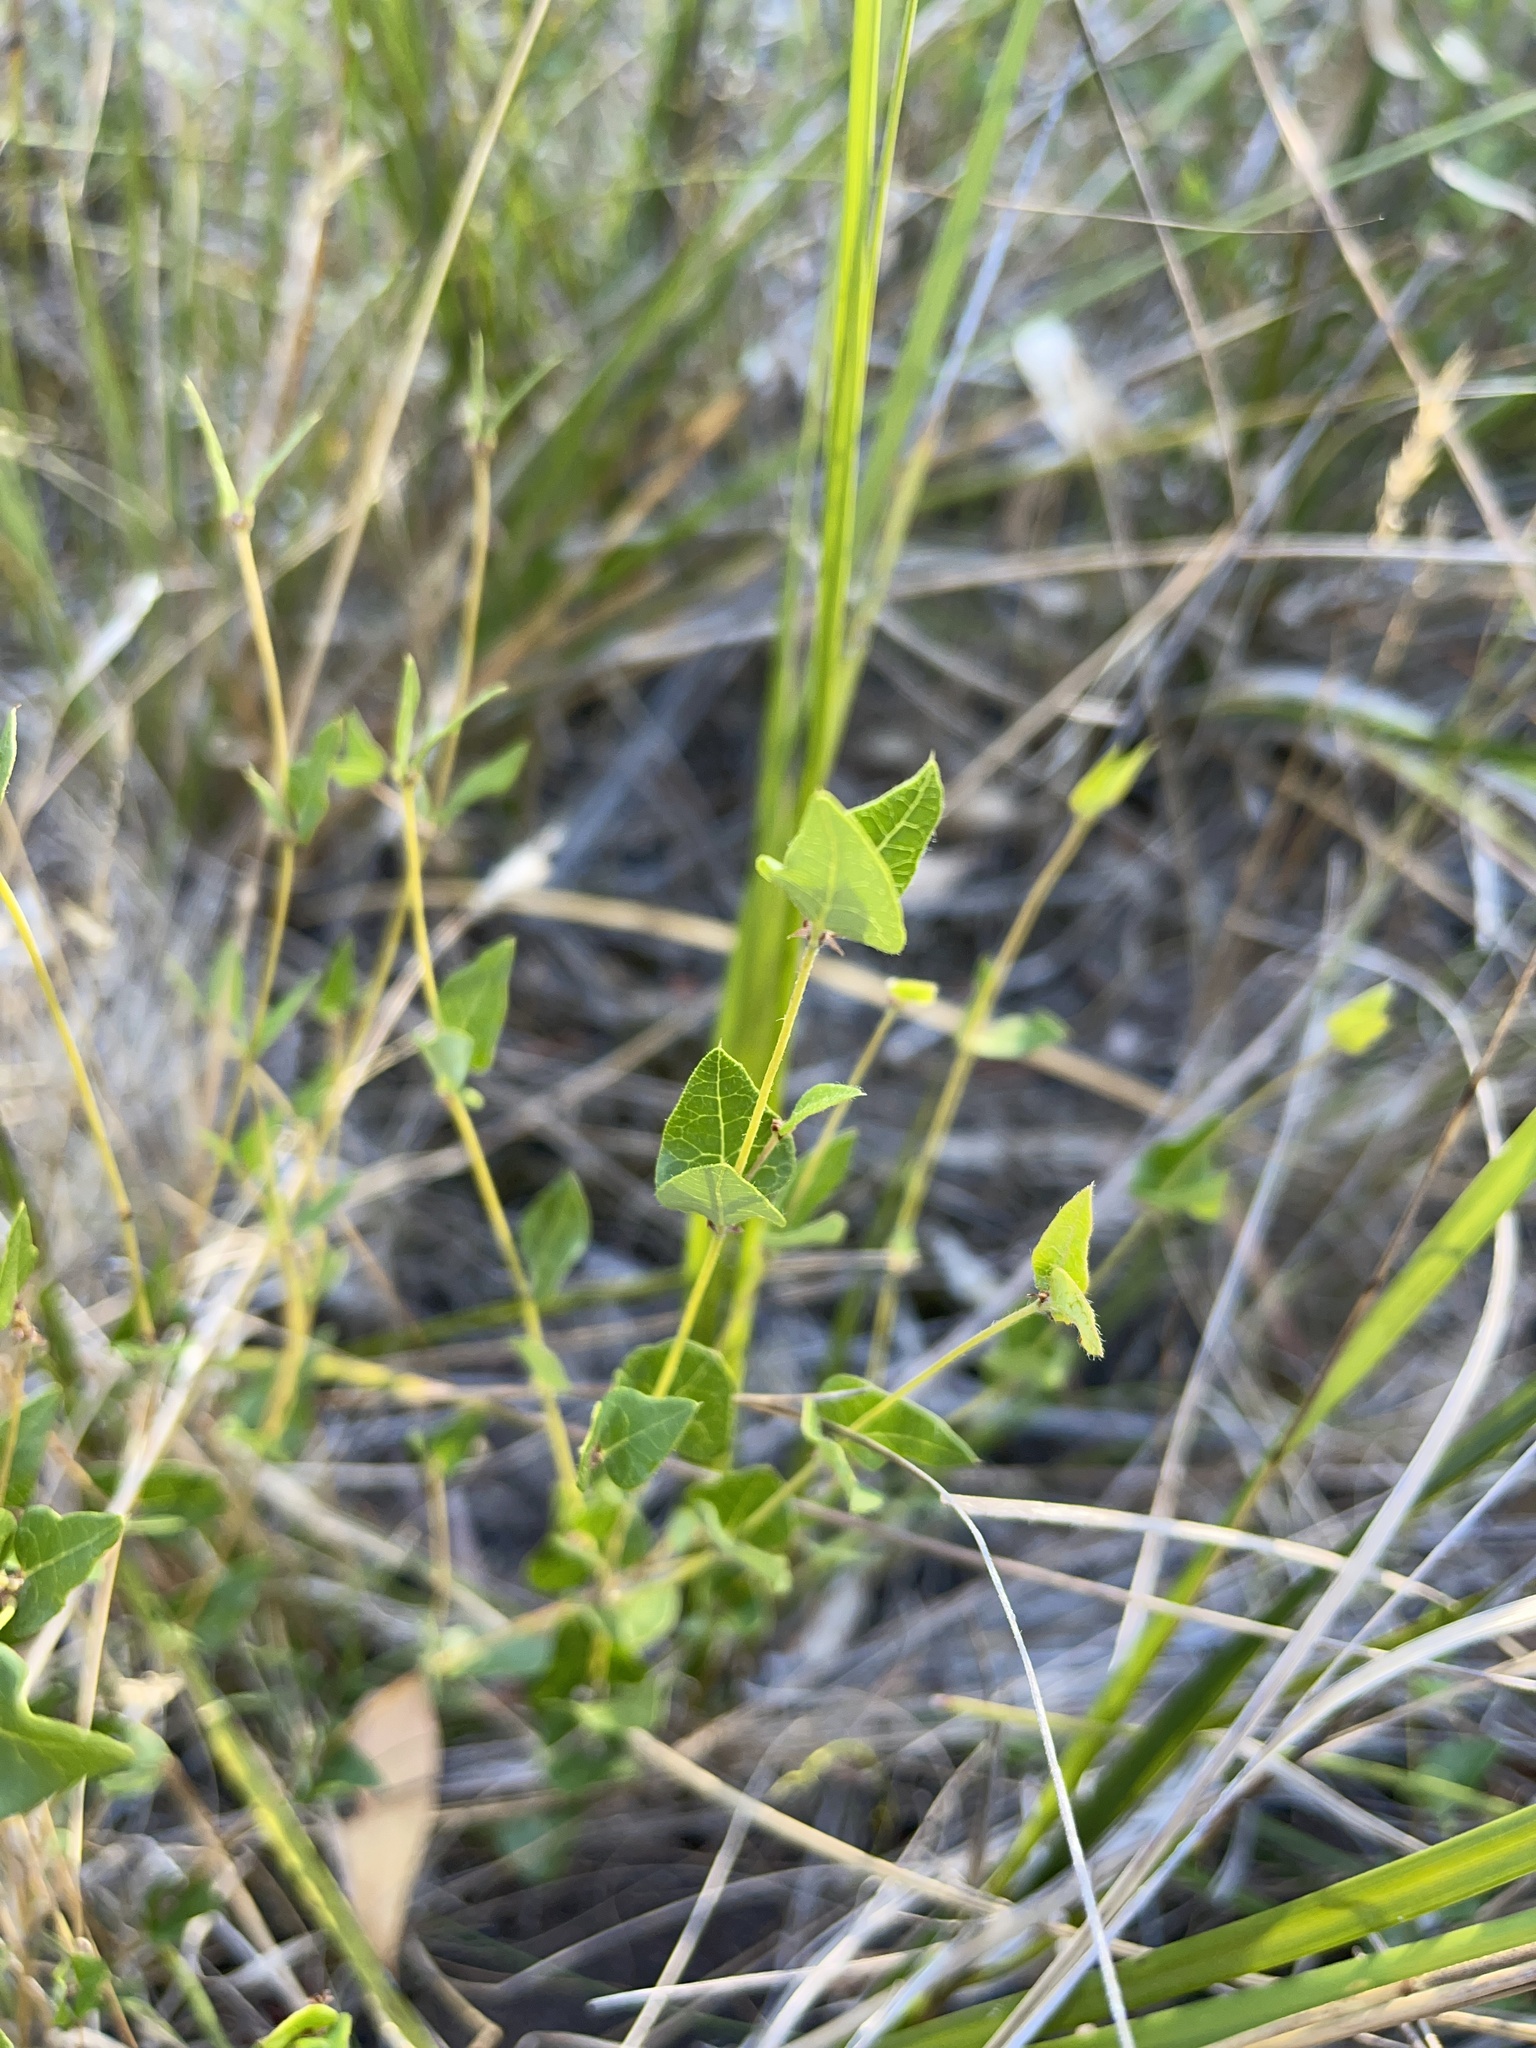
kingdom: Plantae
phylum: Tracheophyta
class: Magnoliopsida
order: Fabales
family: Fabaceae
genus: Platylobium
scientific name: Platylobium obtusangulum
